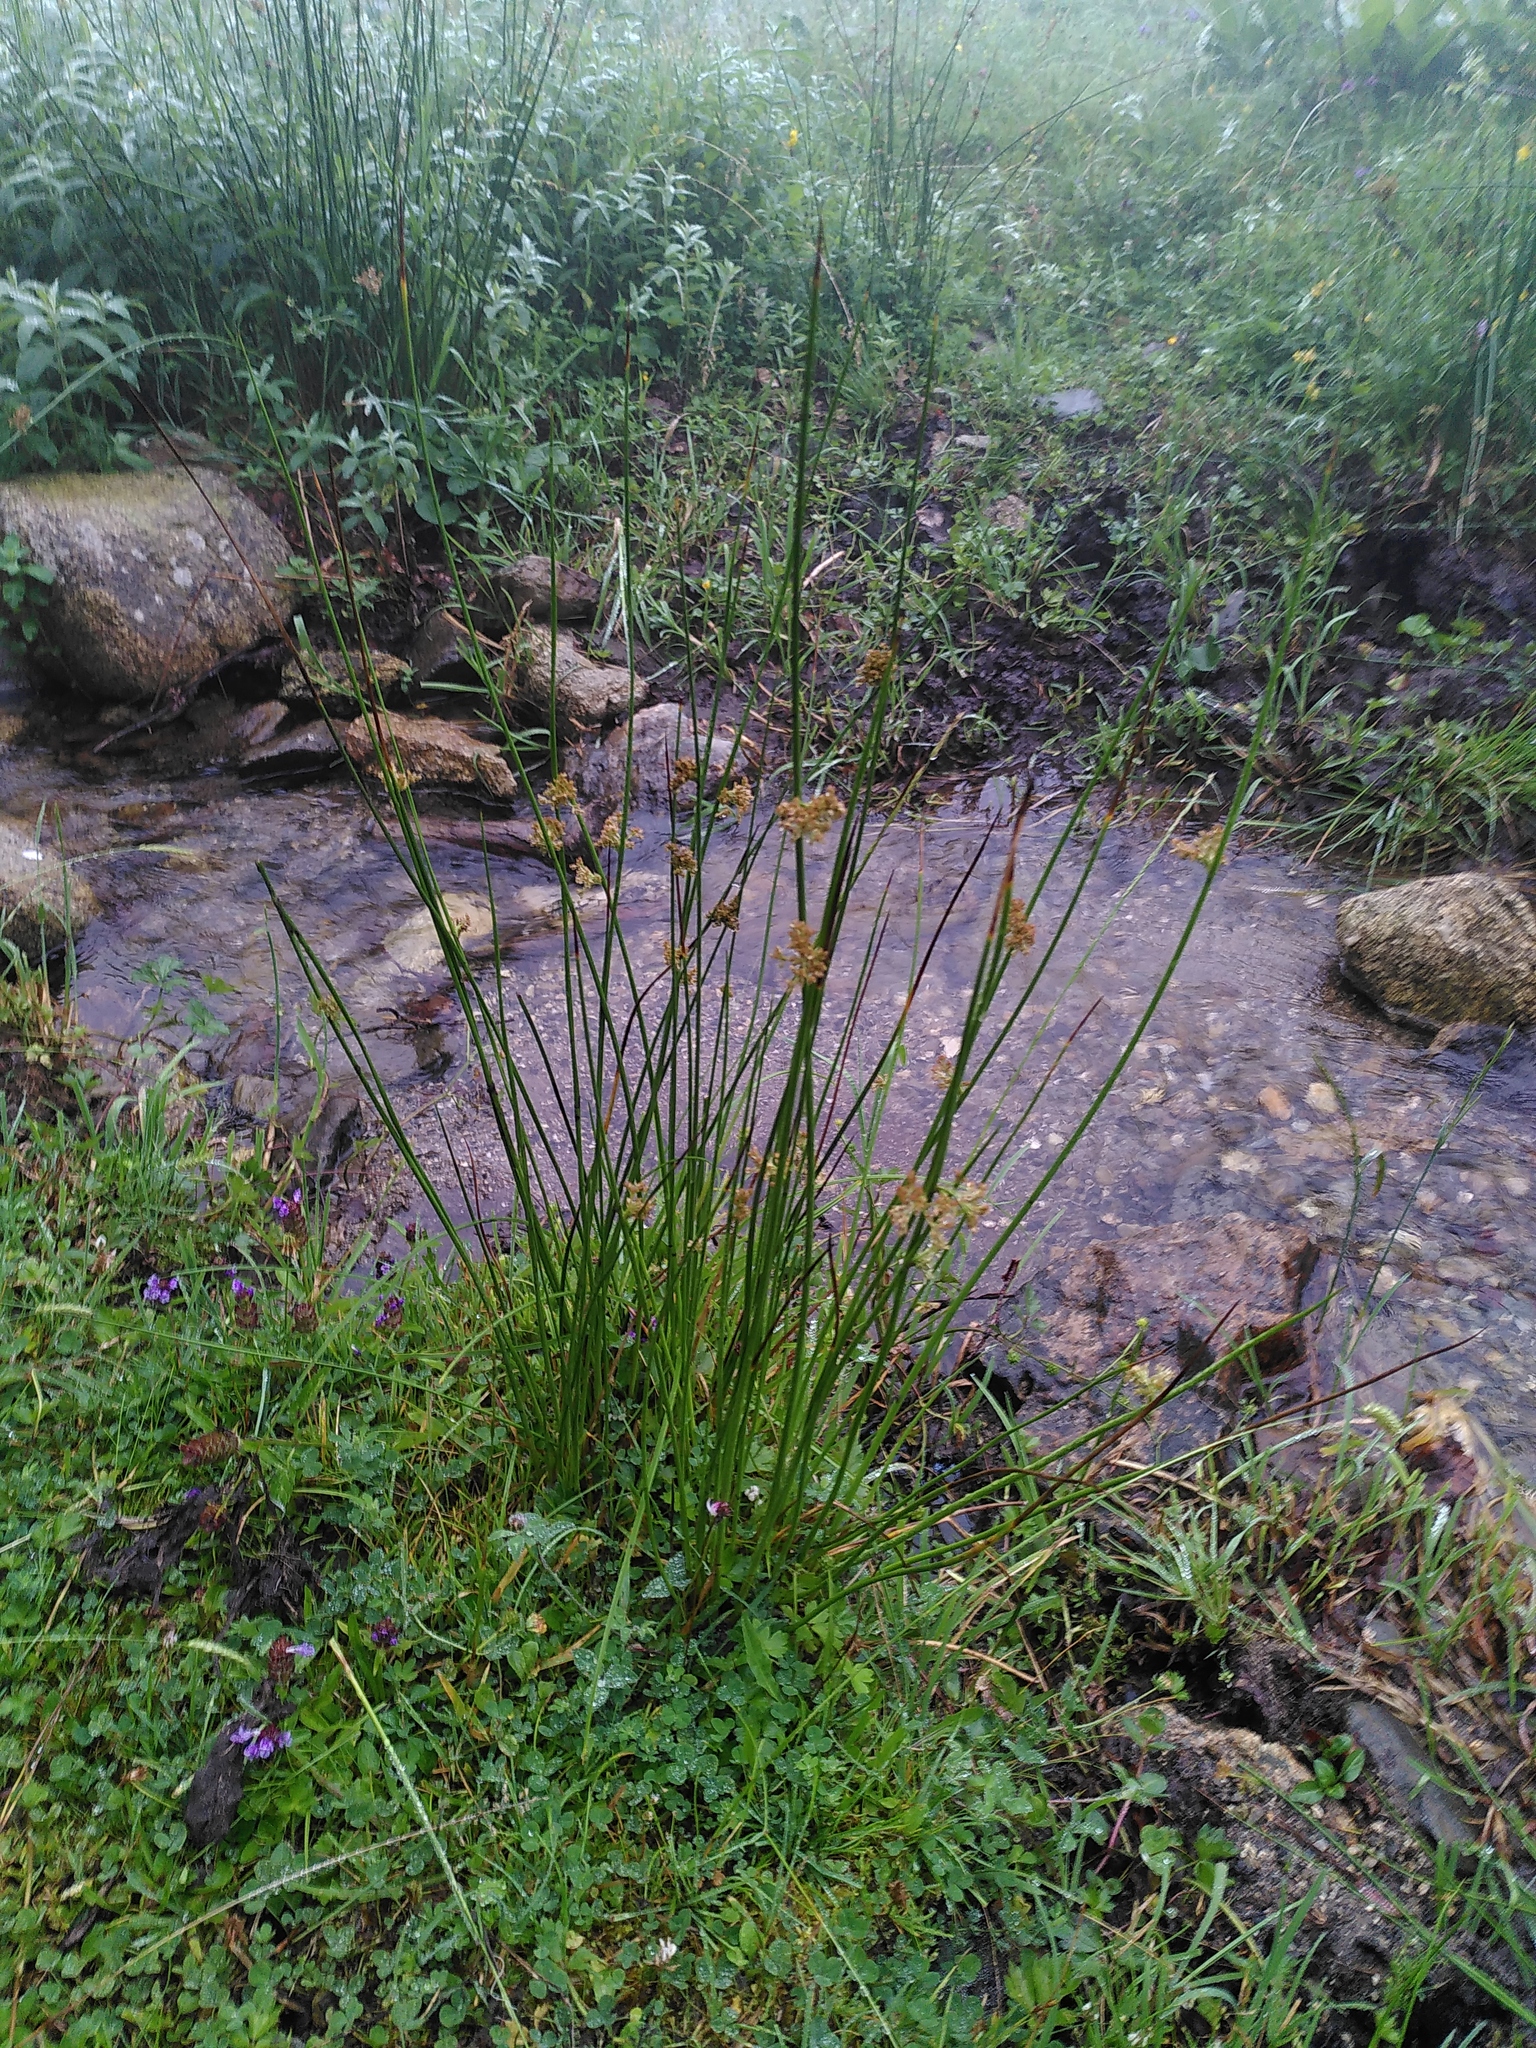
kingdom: Plantae
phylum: Tracheophyta
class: Liliopsida
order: Poales
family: Juncaceae
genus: Juncus
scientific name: Juncus effusus
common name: Soft rush
